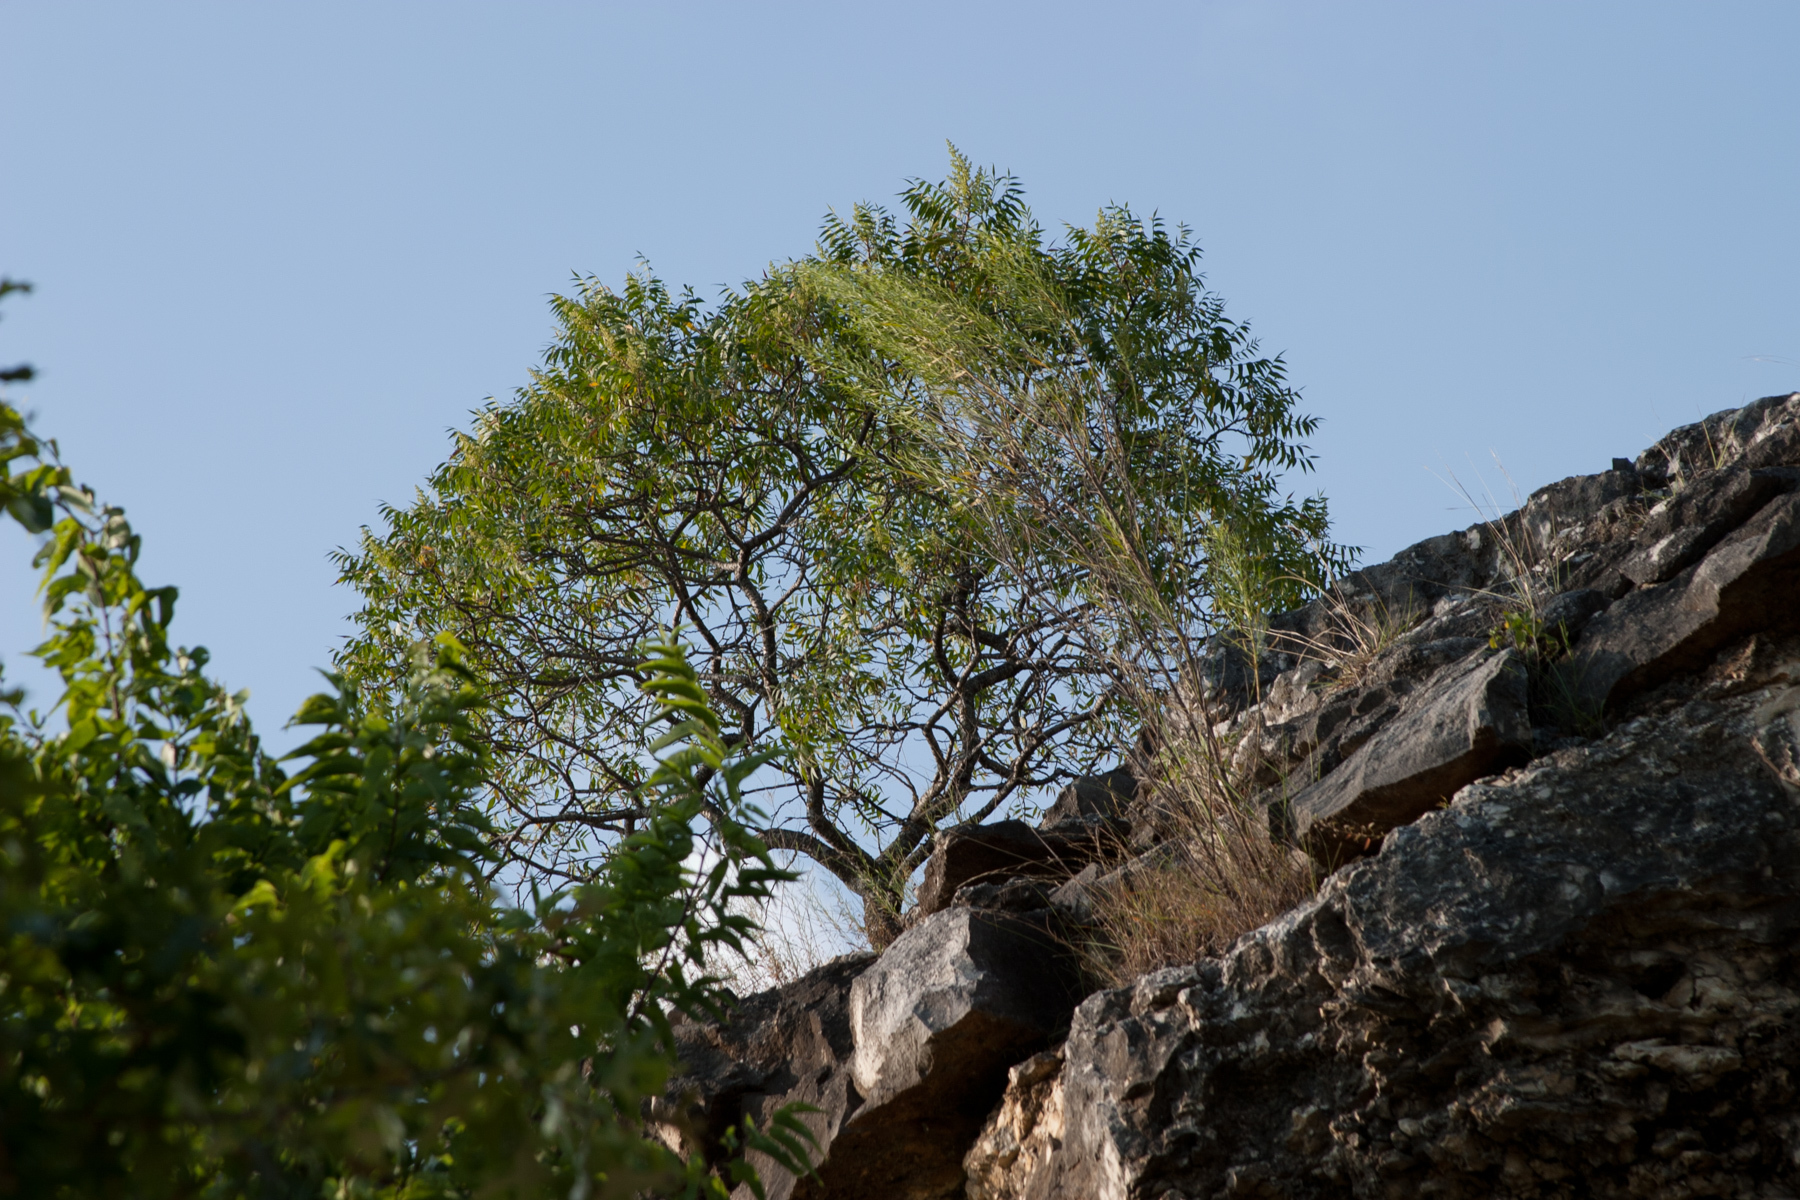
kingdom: Plantae
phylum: Tracheophyta
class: Magnoliopsida
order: Sapindales
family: Anacardiaceae
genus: Rhus
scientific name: Rhus lanceolata
